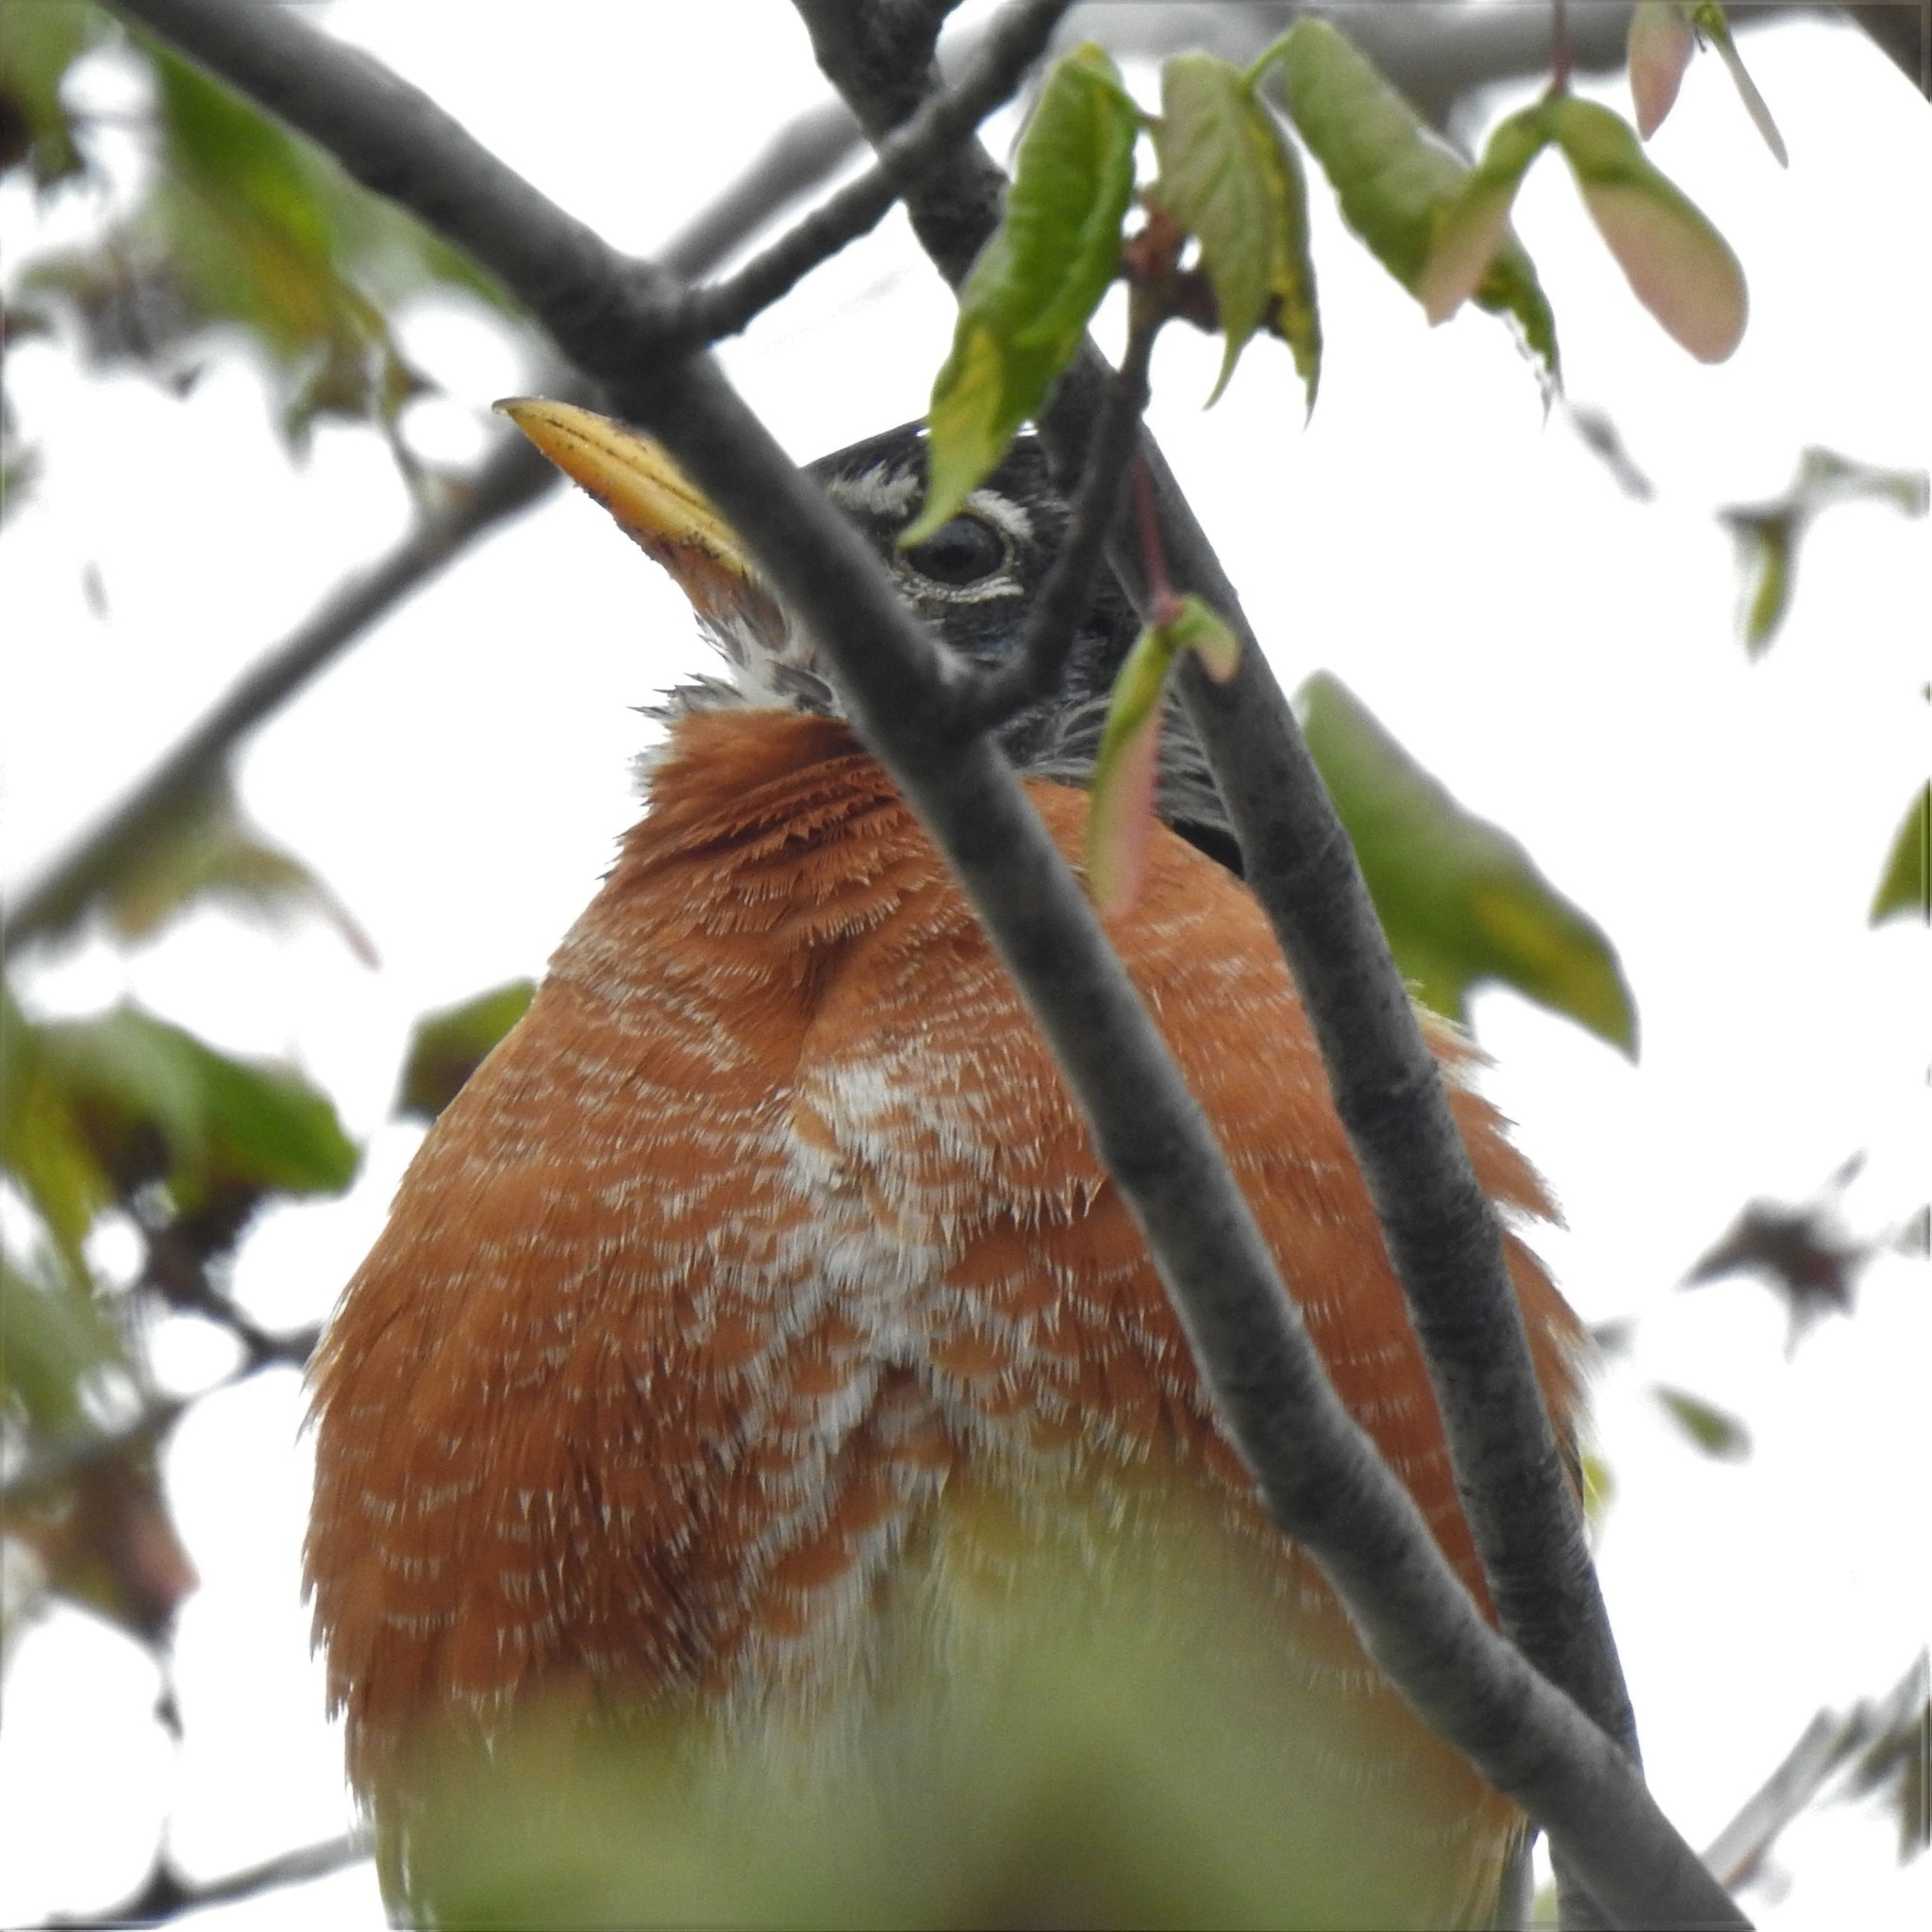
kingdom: Animalia
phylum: Chordata
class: Aves
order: Passeriformes
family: Turdidae
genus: Turdus
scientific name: Turdus migratorius
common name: American robin
